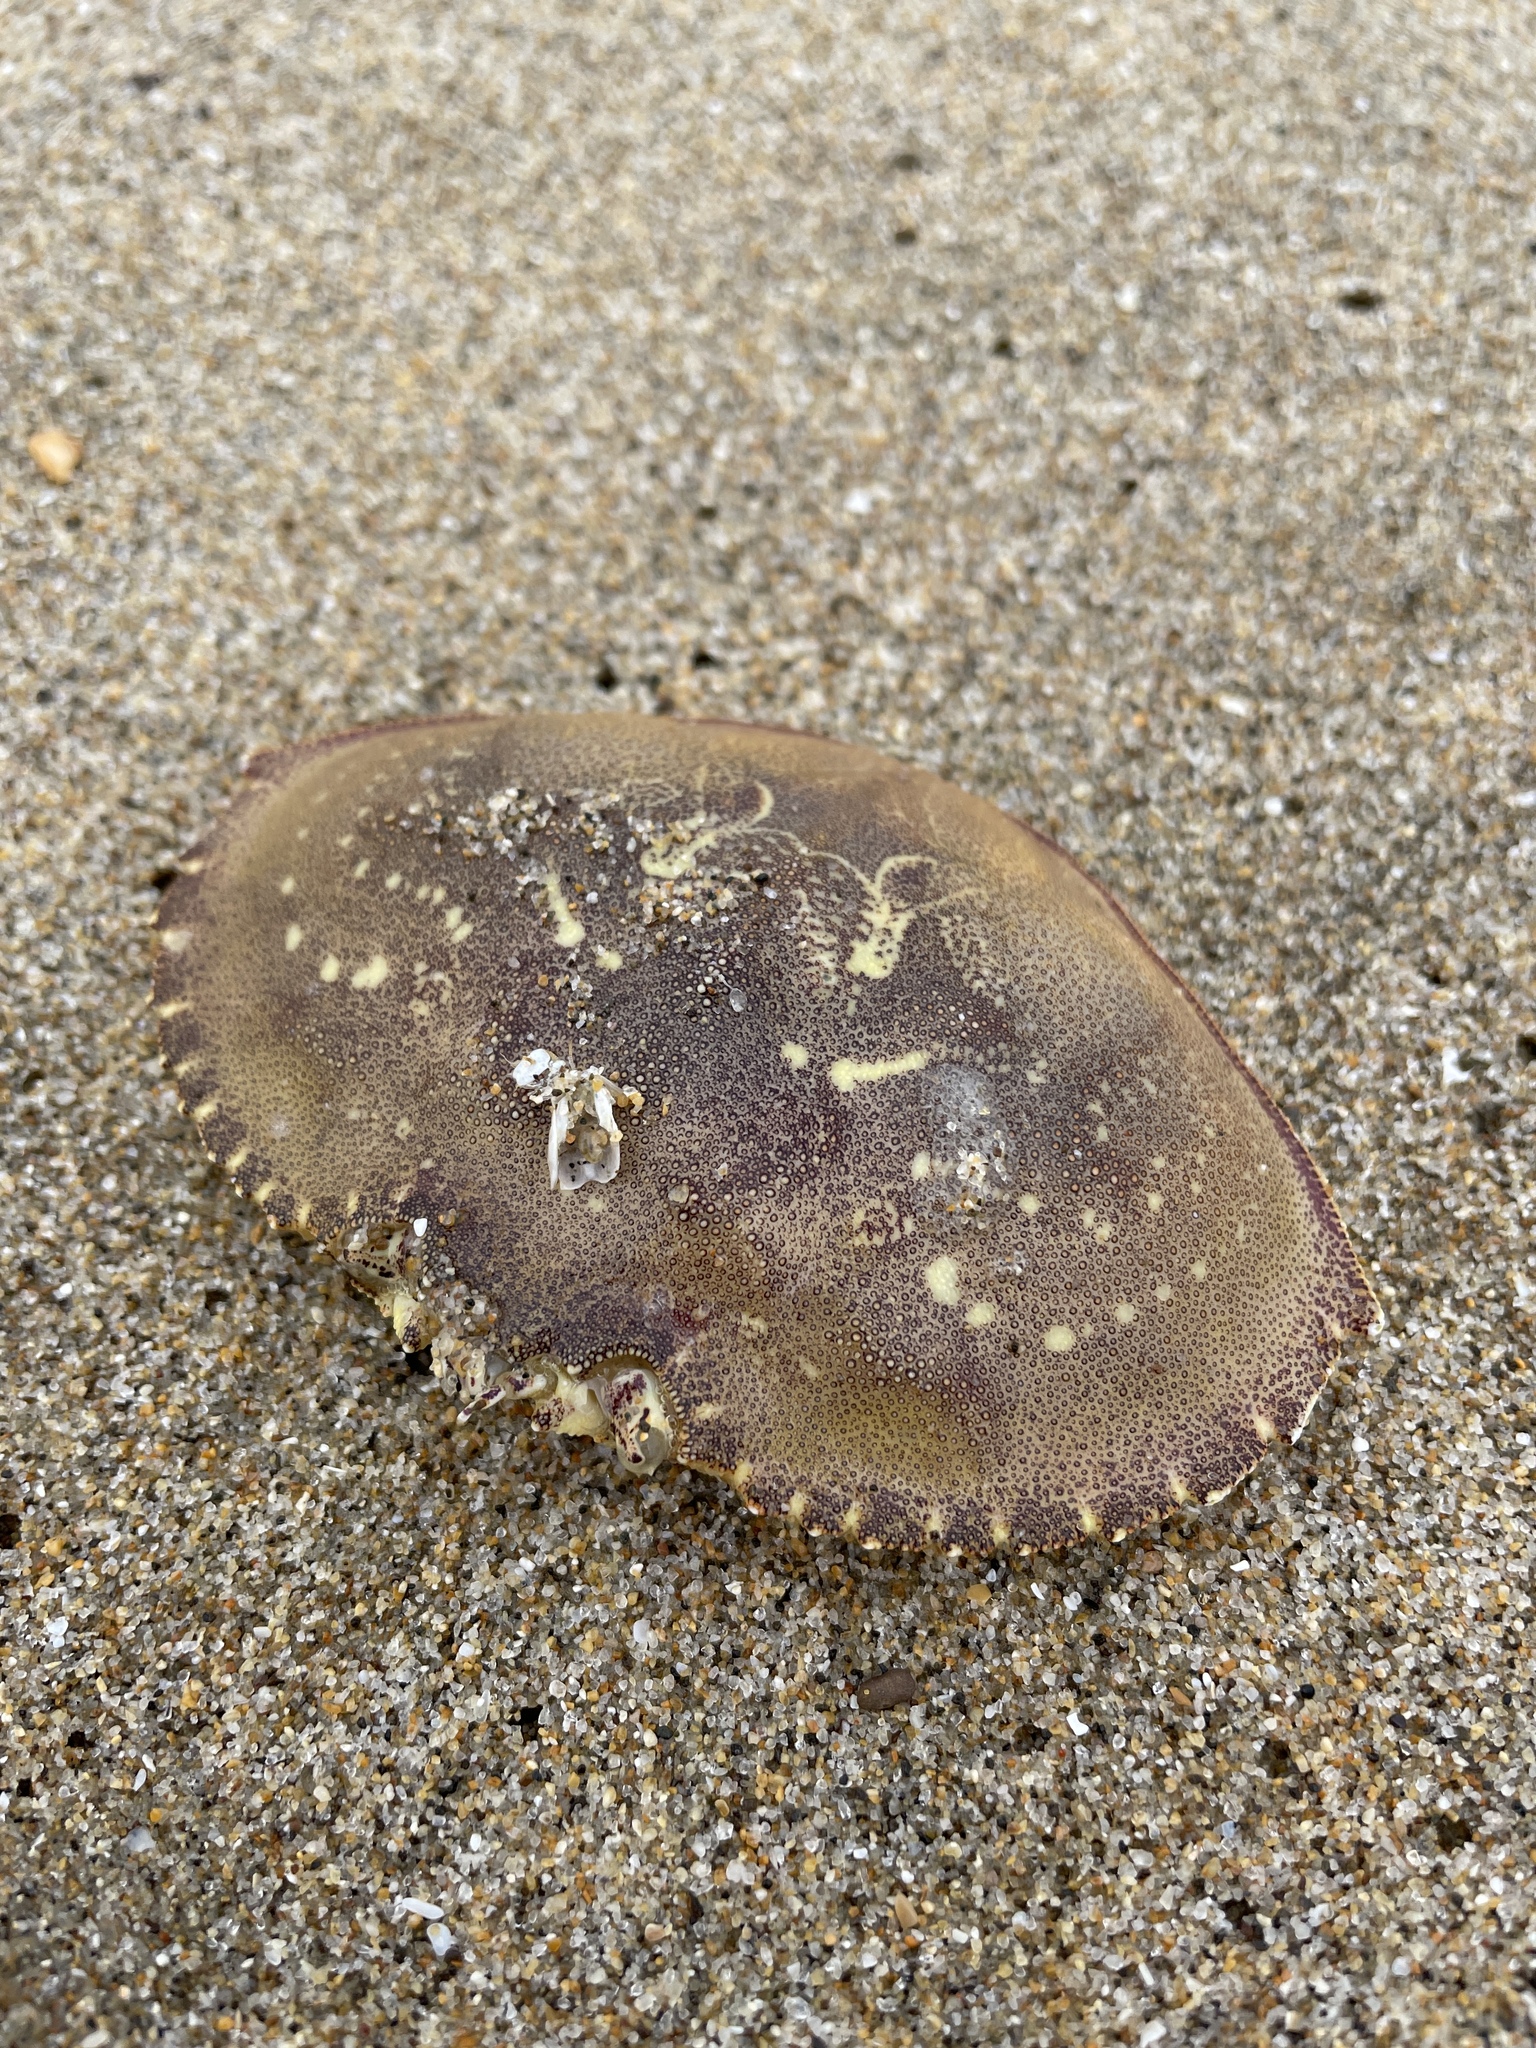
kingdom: Animalia
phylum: Arthropoda
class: Malacostraca
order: Decapoda
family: Cancridae
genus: Metacarcinus
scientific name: Metacarcinus magister
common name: Californian crab
